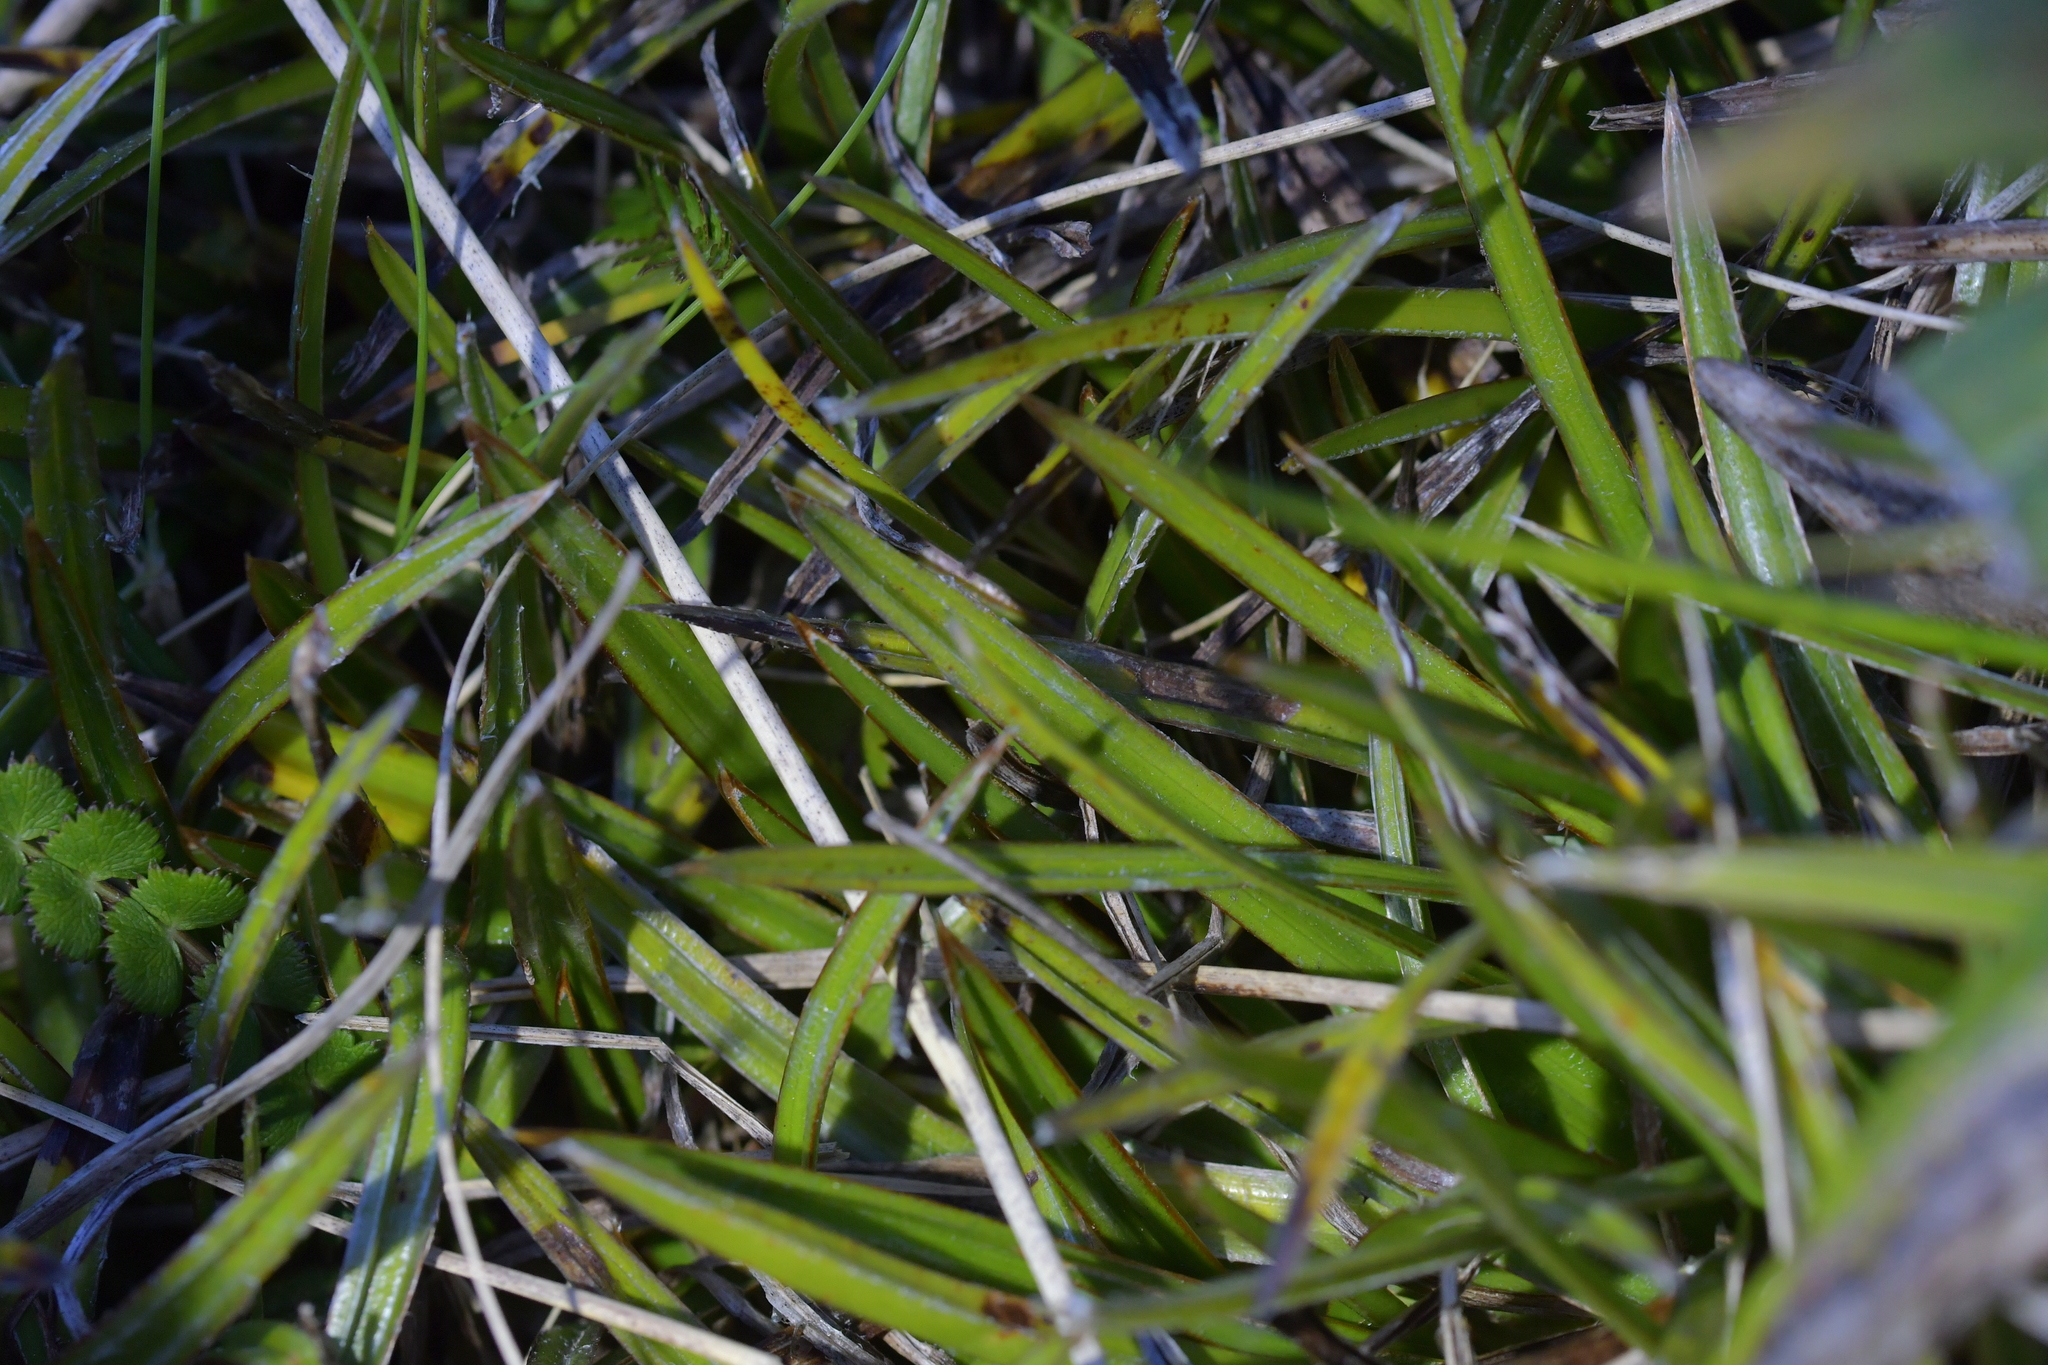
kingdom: Plantae
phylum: Tracheophyta
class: Liliopsida
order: Asparagales
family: Asteliaceae
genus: Astelia
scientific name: Astelia linearis
